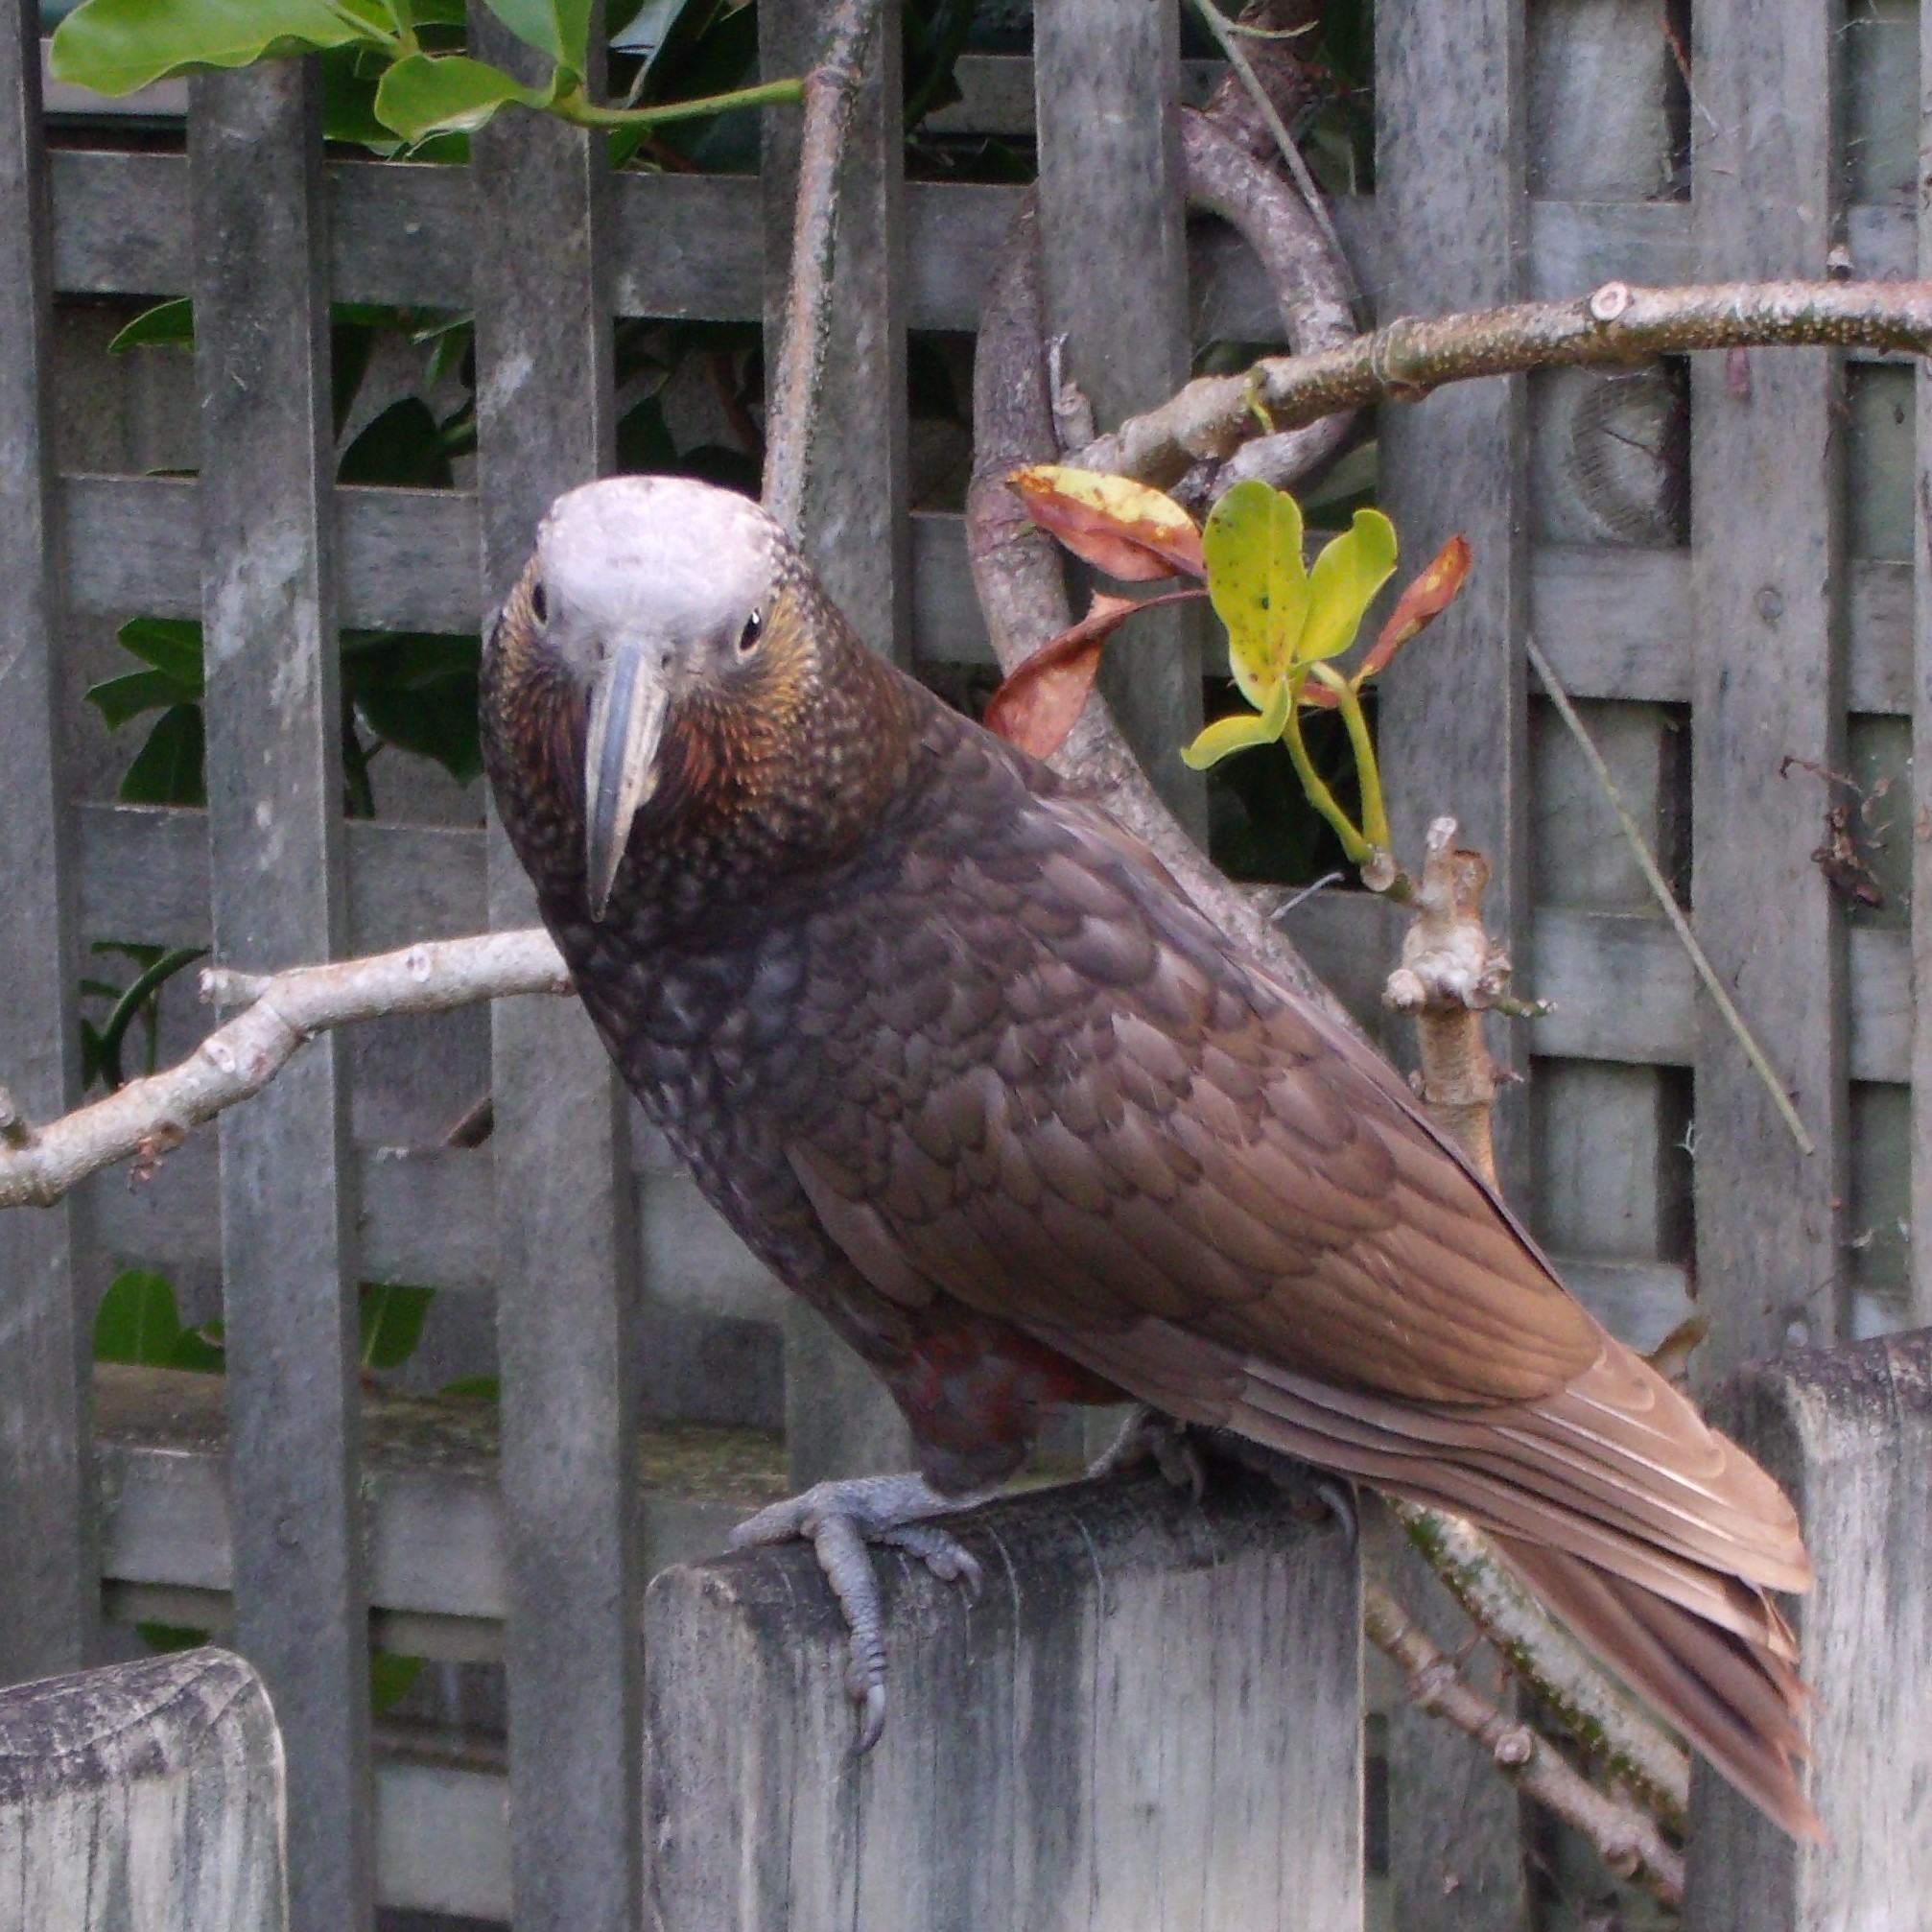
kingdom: Animalia
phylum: Chordata
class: Aves
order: Psittaciformes
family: Psittacidae
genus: Nestor
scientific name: Nestor meridionalis
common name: New zealand kaka
